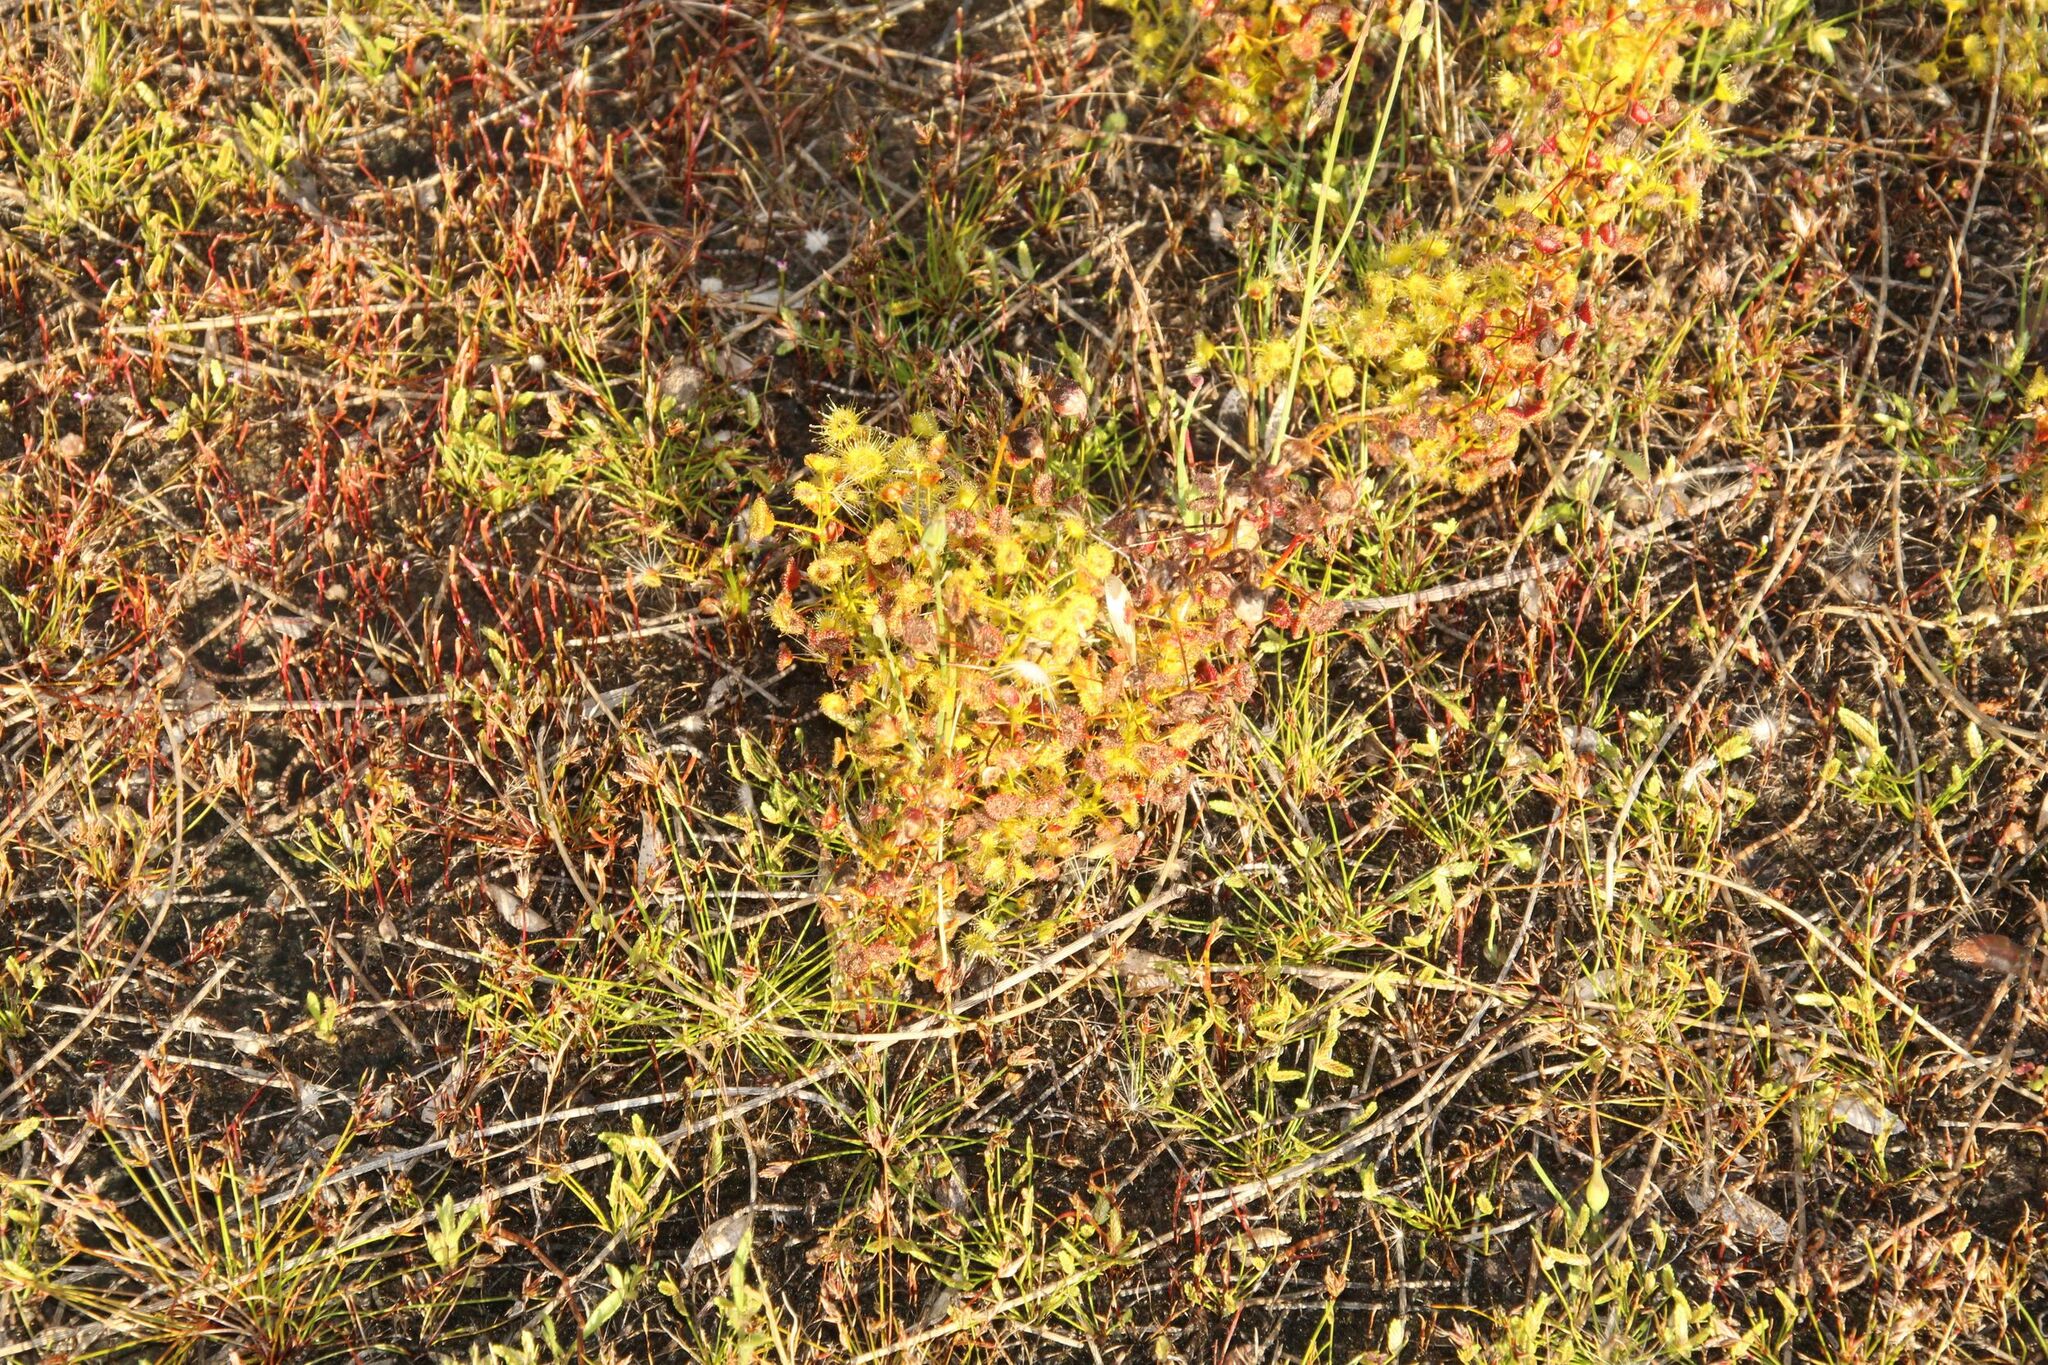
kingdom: Plantae
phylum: Tracheophyta
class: Magnoliopsida
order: Caryophyllales
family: Droseraceae
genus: Drosera
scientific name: Drosera stricticaulis
